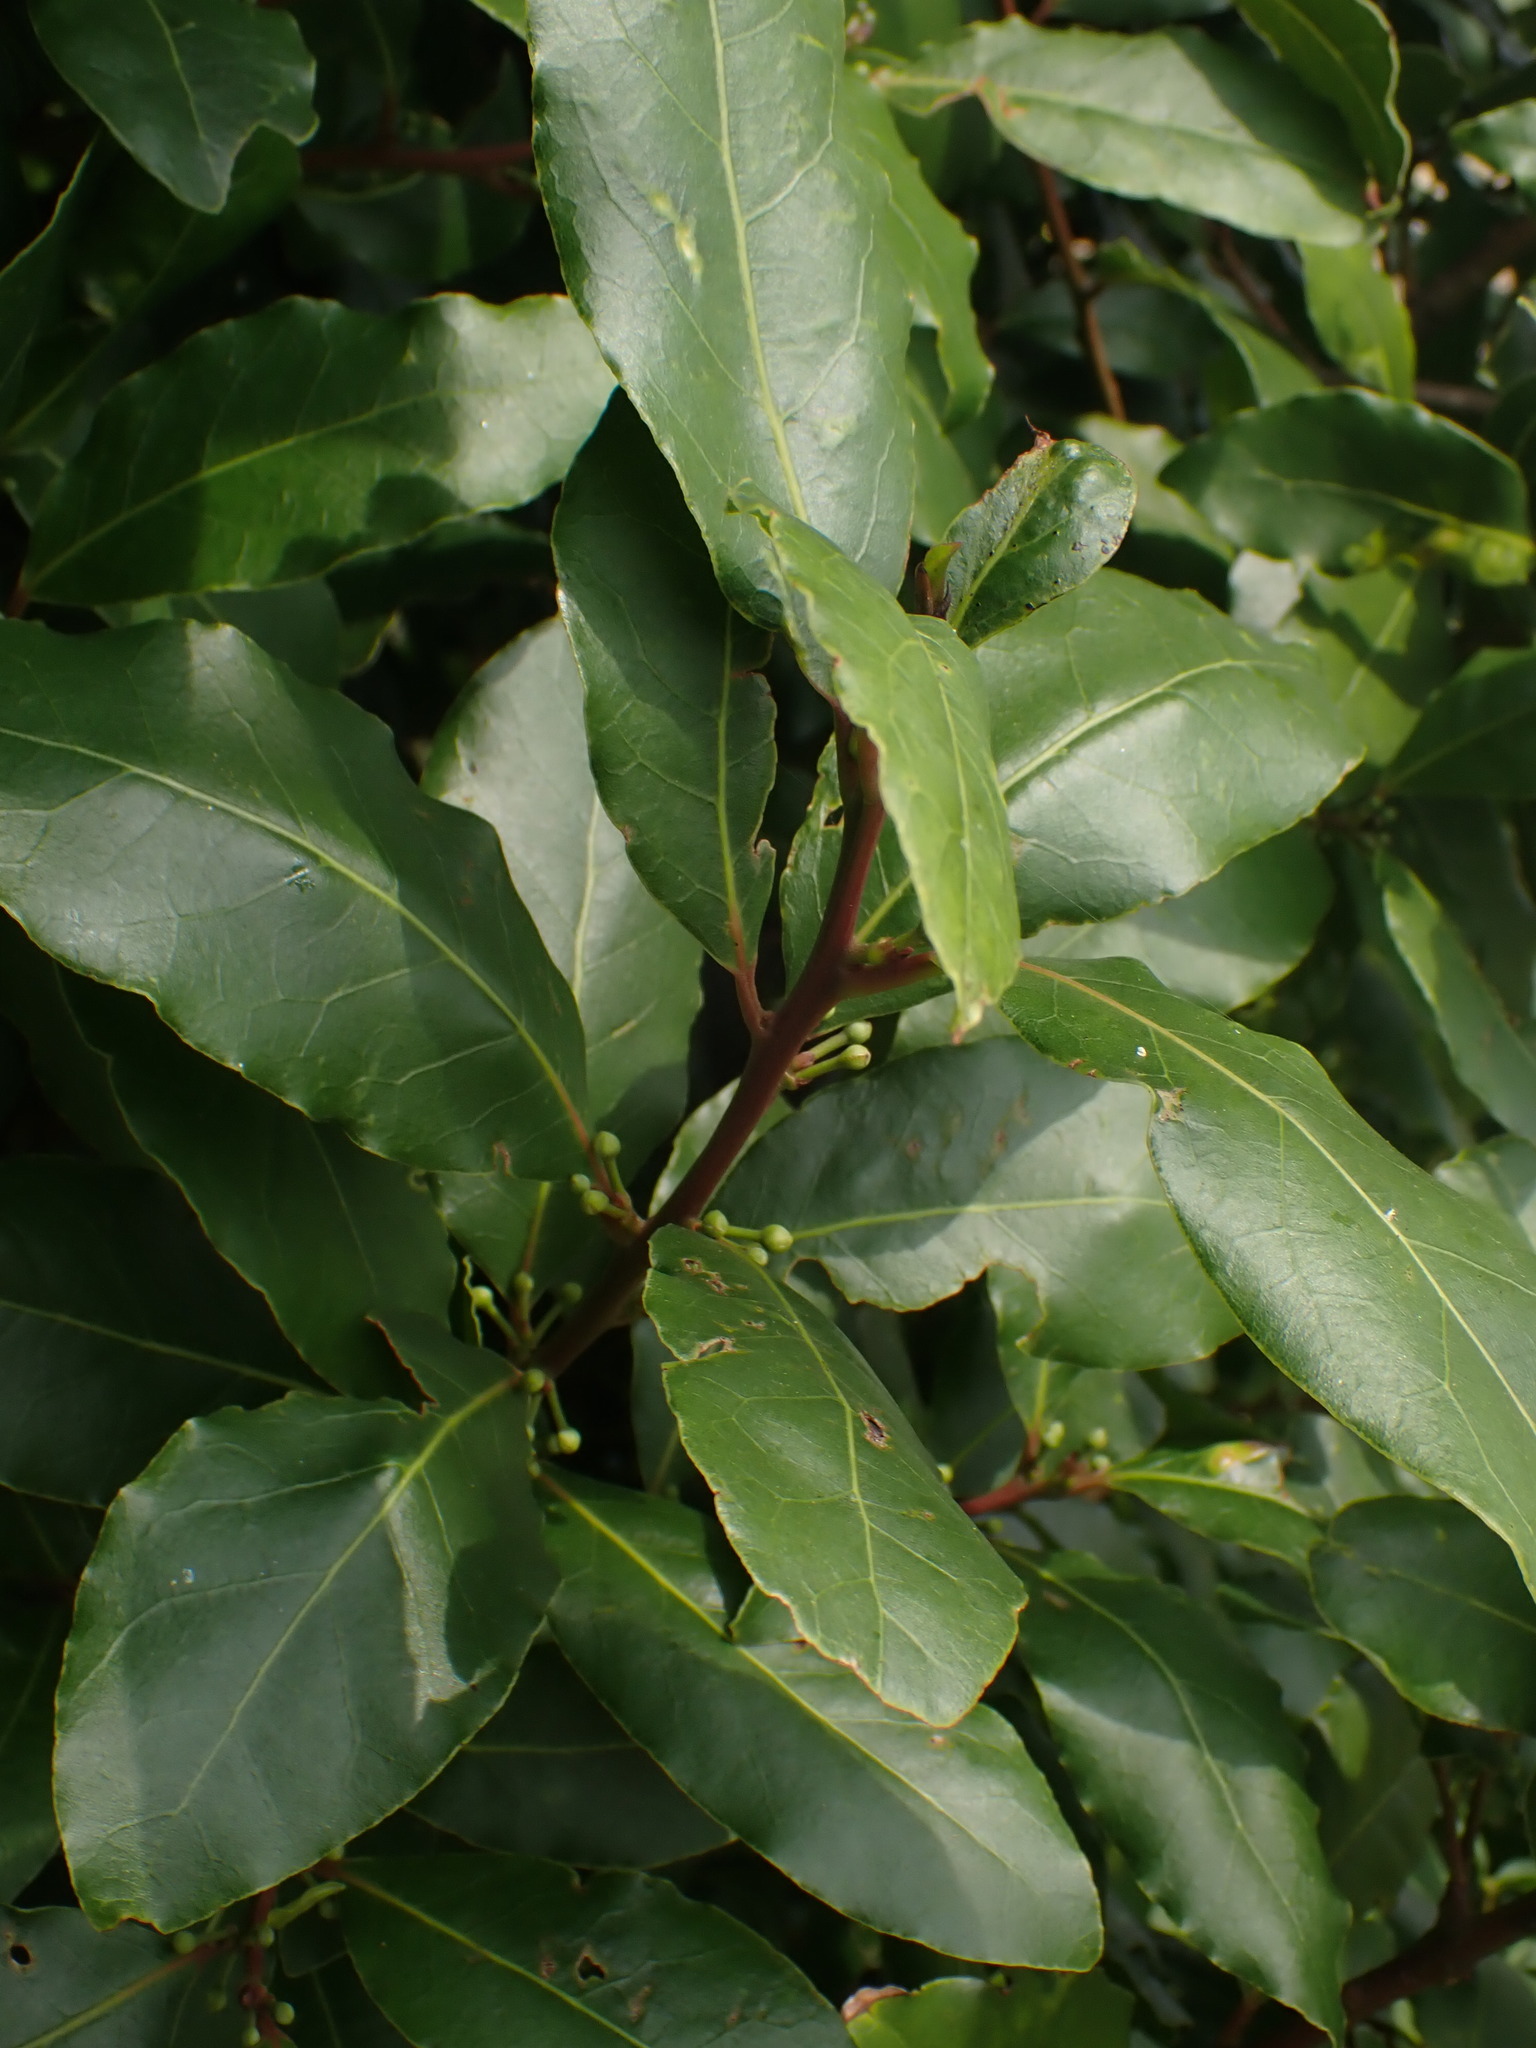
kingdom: Plantae
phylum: Tracheophyta
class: Magnoliopsida
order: Laurales
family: Lauraceae
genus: Laurus
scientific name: Laurus nobilis
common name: Bay
